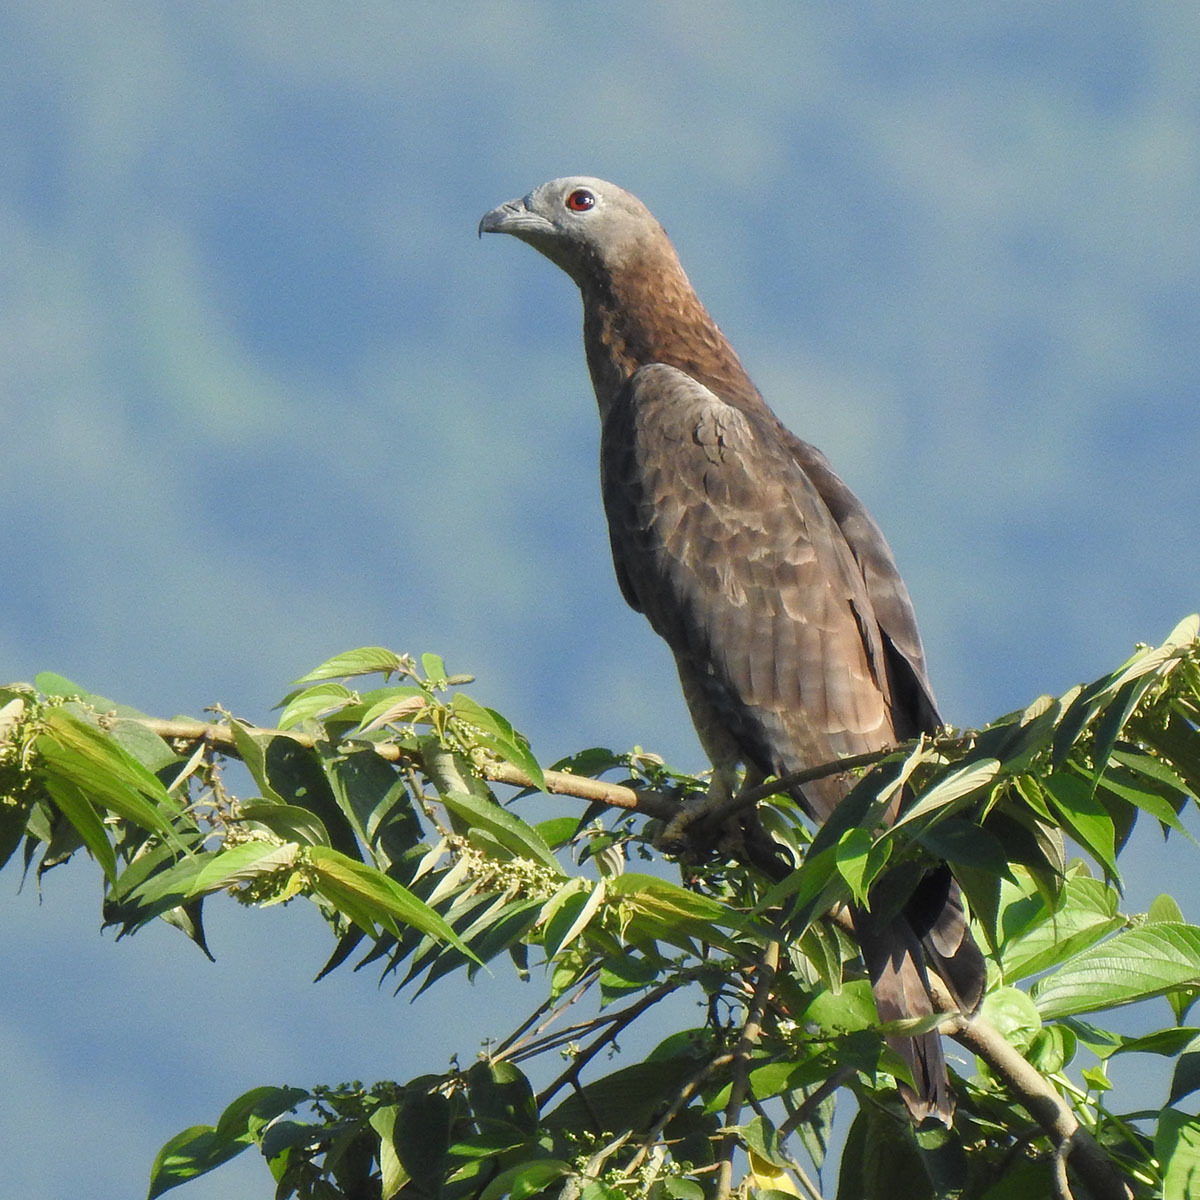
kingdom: Animalia
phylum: Chordata
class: Aves
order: Accipitriformes
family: Accipitridae
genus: Pernis
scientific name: Pernis ptilorhynchus
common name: Crested honey buzzard
